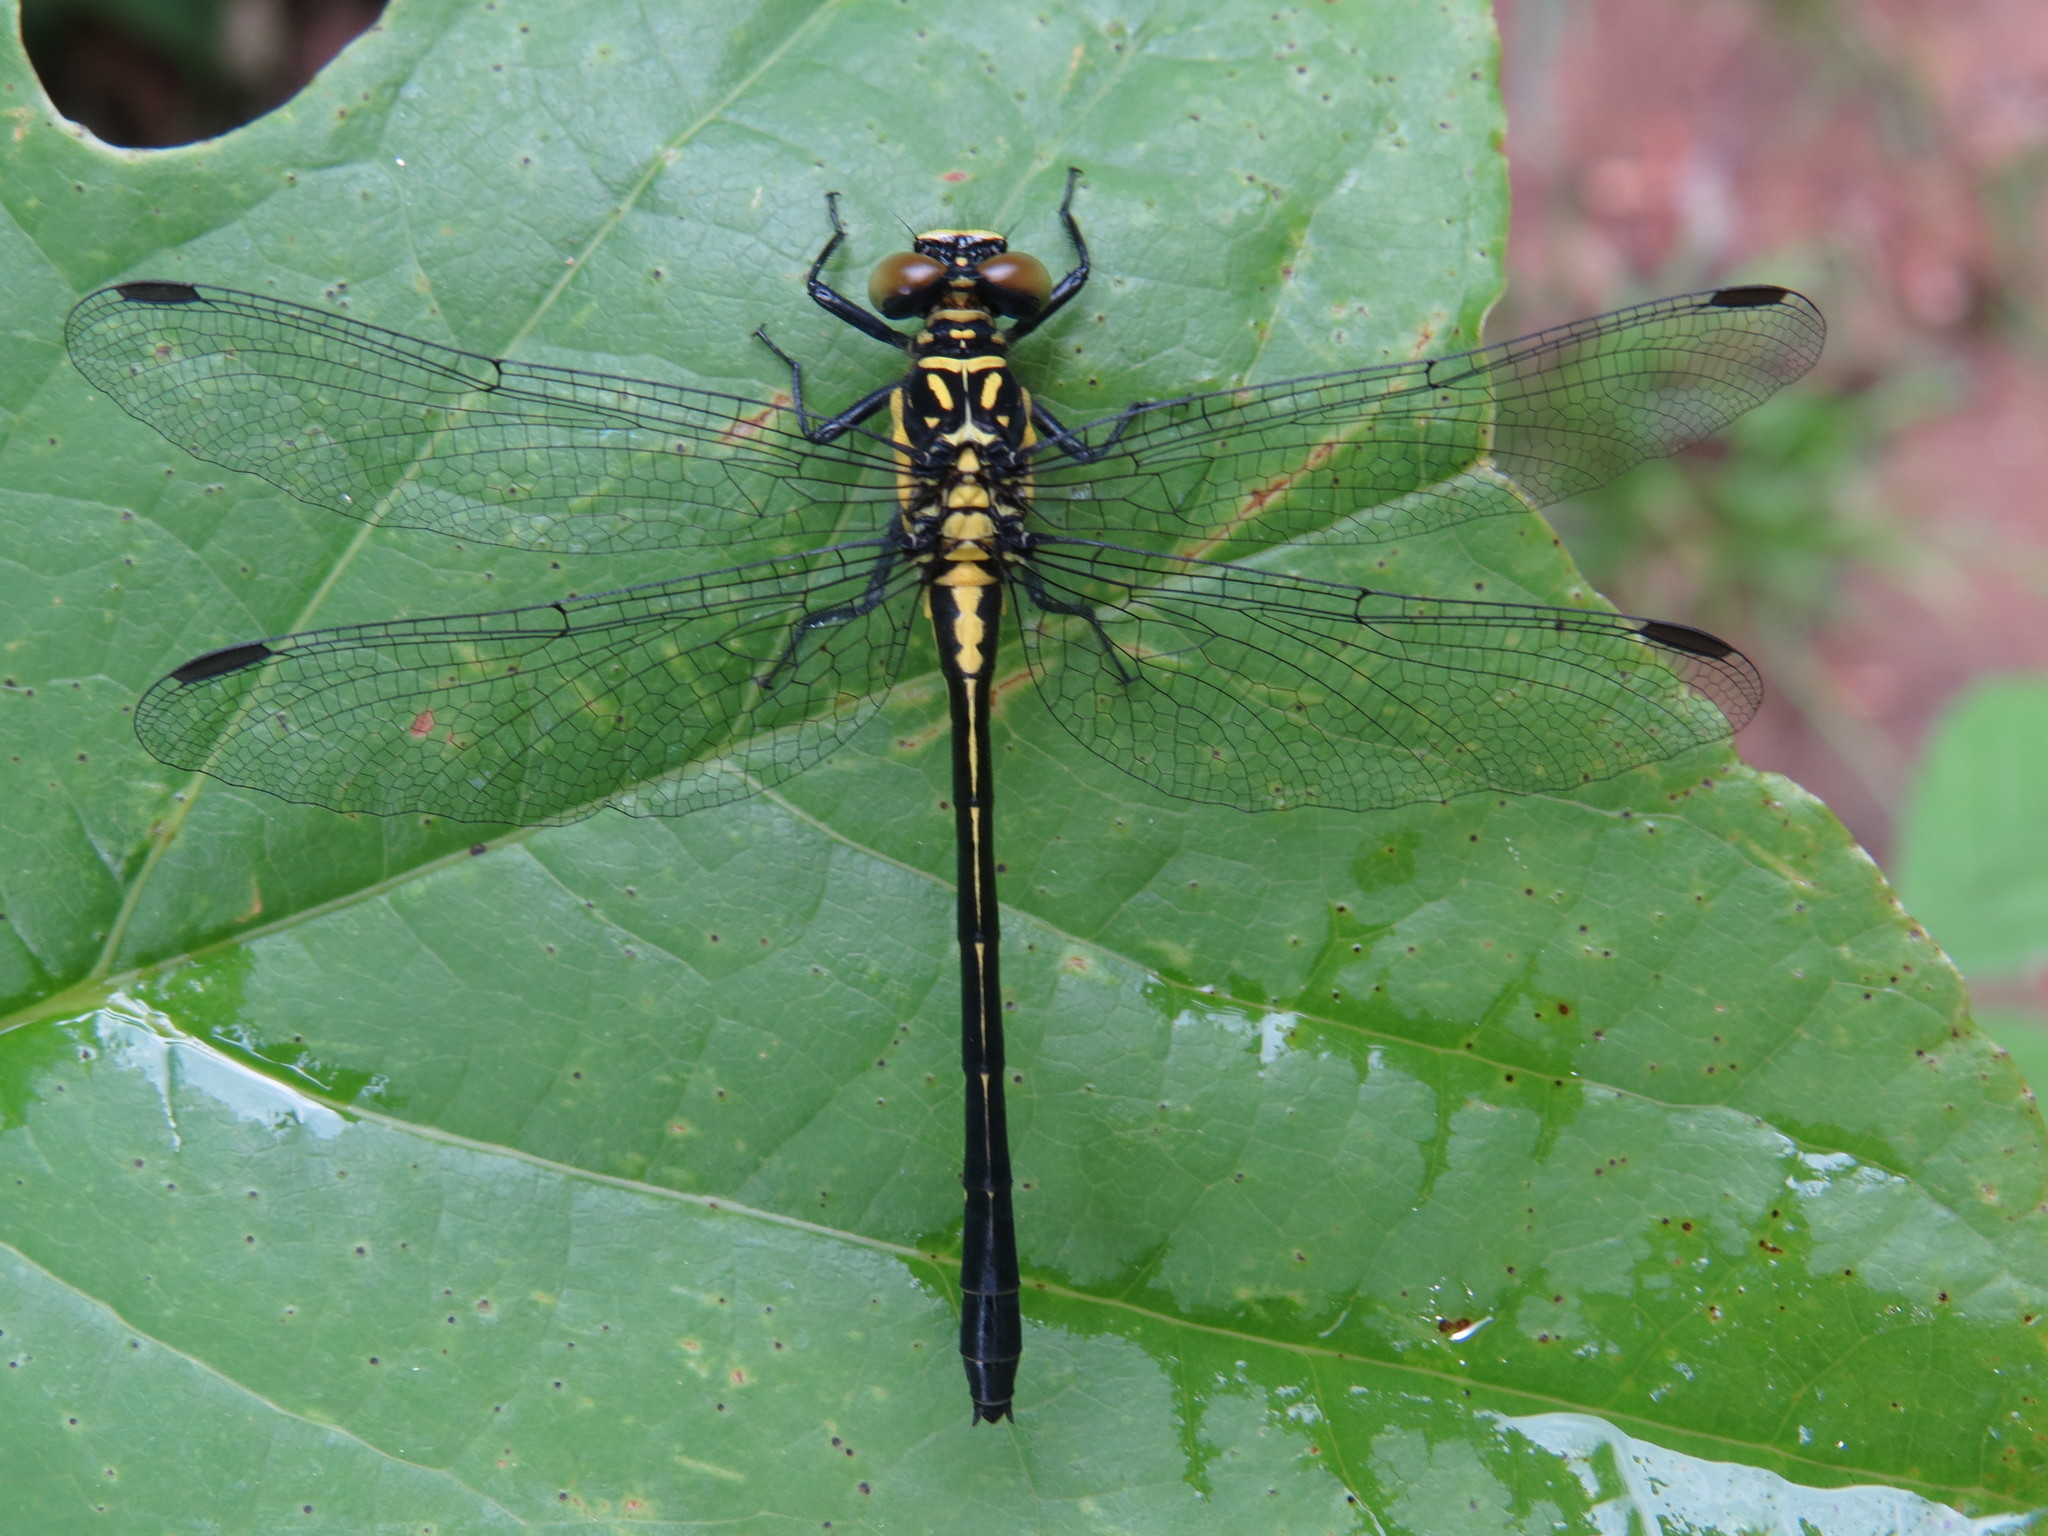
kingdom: Animalia
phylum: Arthropoda
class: Insecta
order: Odonata
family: Gomphidae
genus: Lanthus
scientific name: Lanthus vernalis
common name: Southern pygmy clubtail
